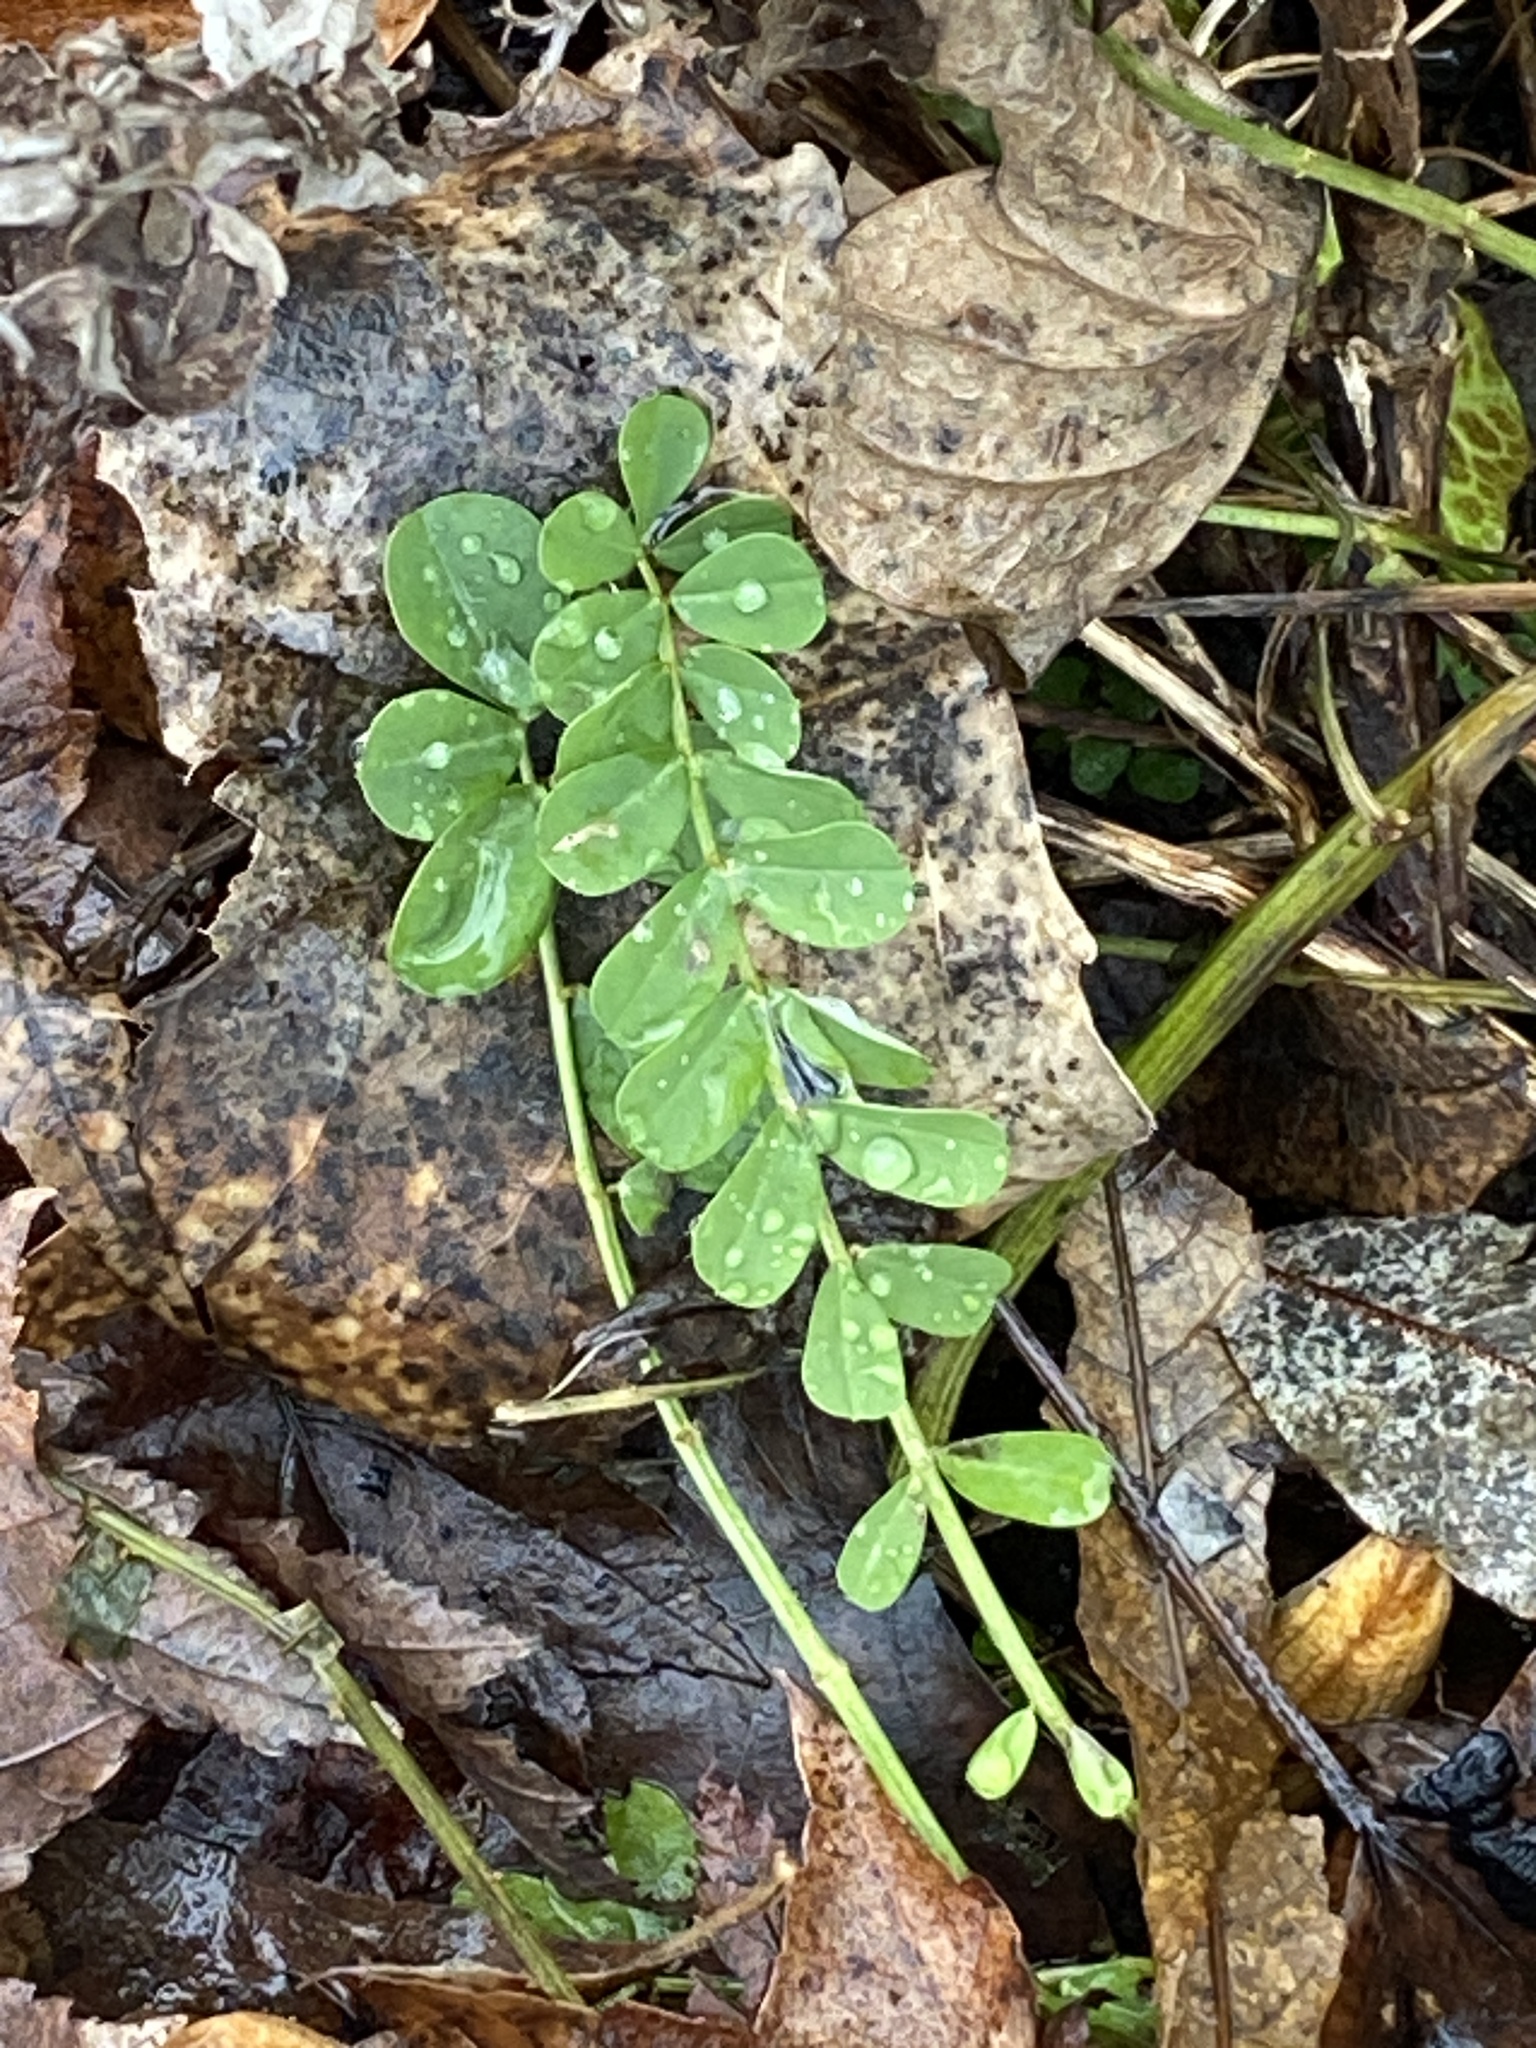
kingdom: Plantae
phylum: Tracheophyta
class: Magnoliopsida
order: Fabales
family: Fabaceae
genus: Coronilla
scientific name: Coronilla varia
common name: Crownvetch
